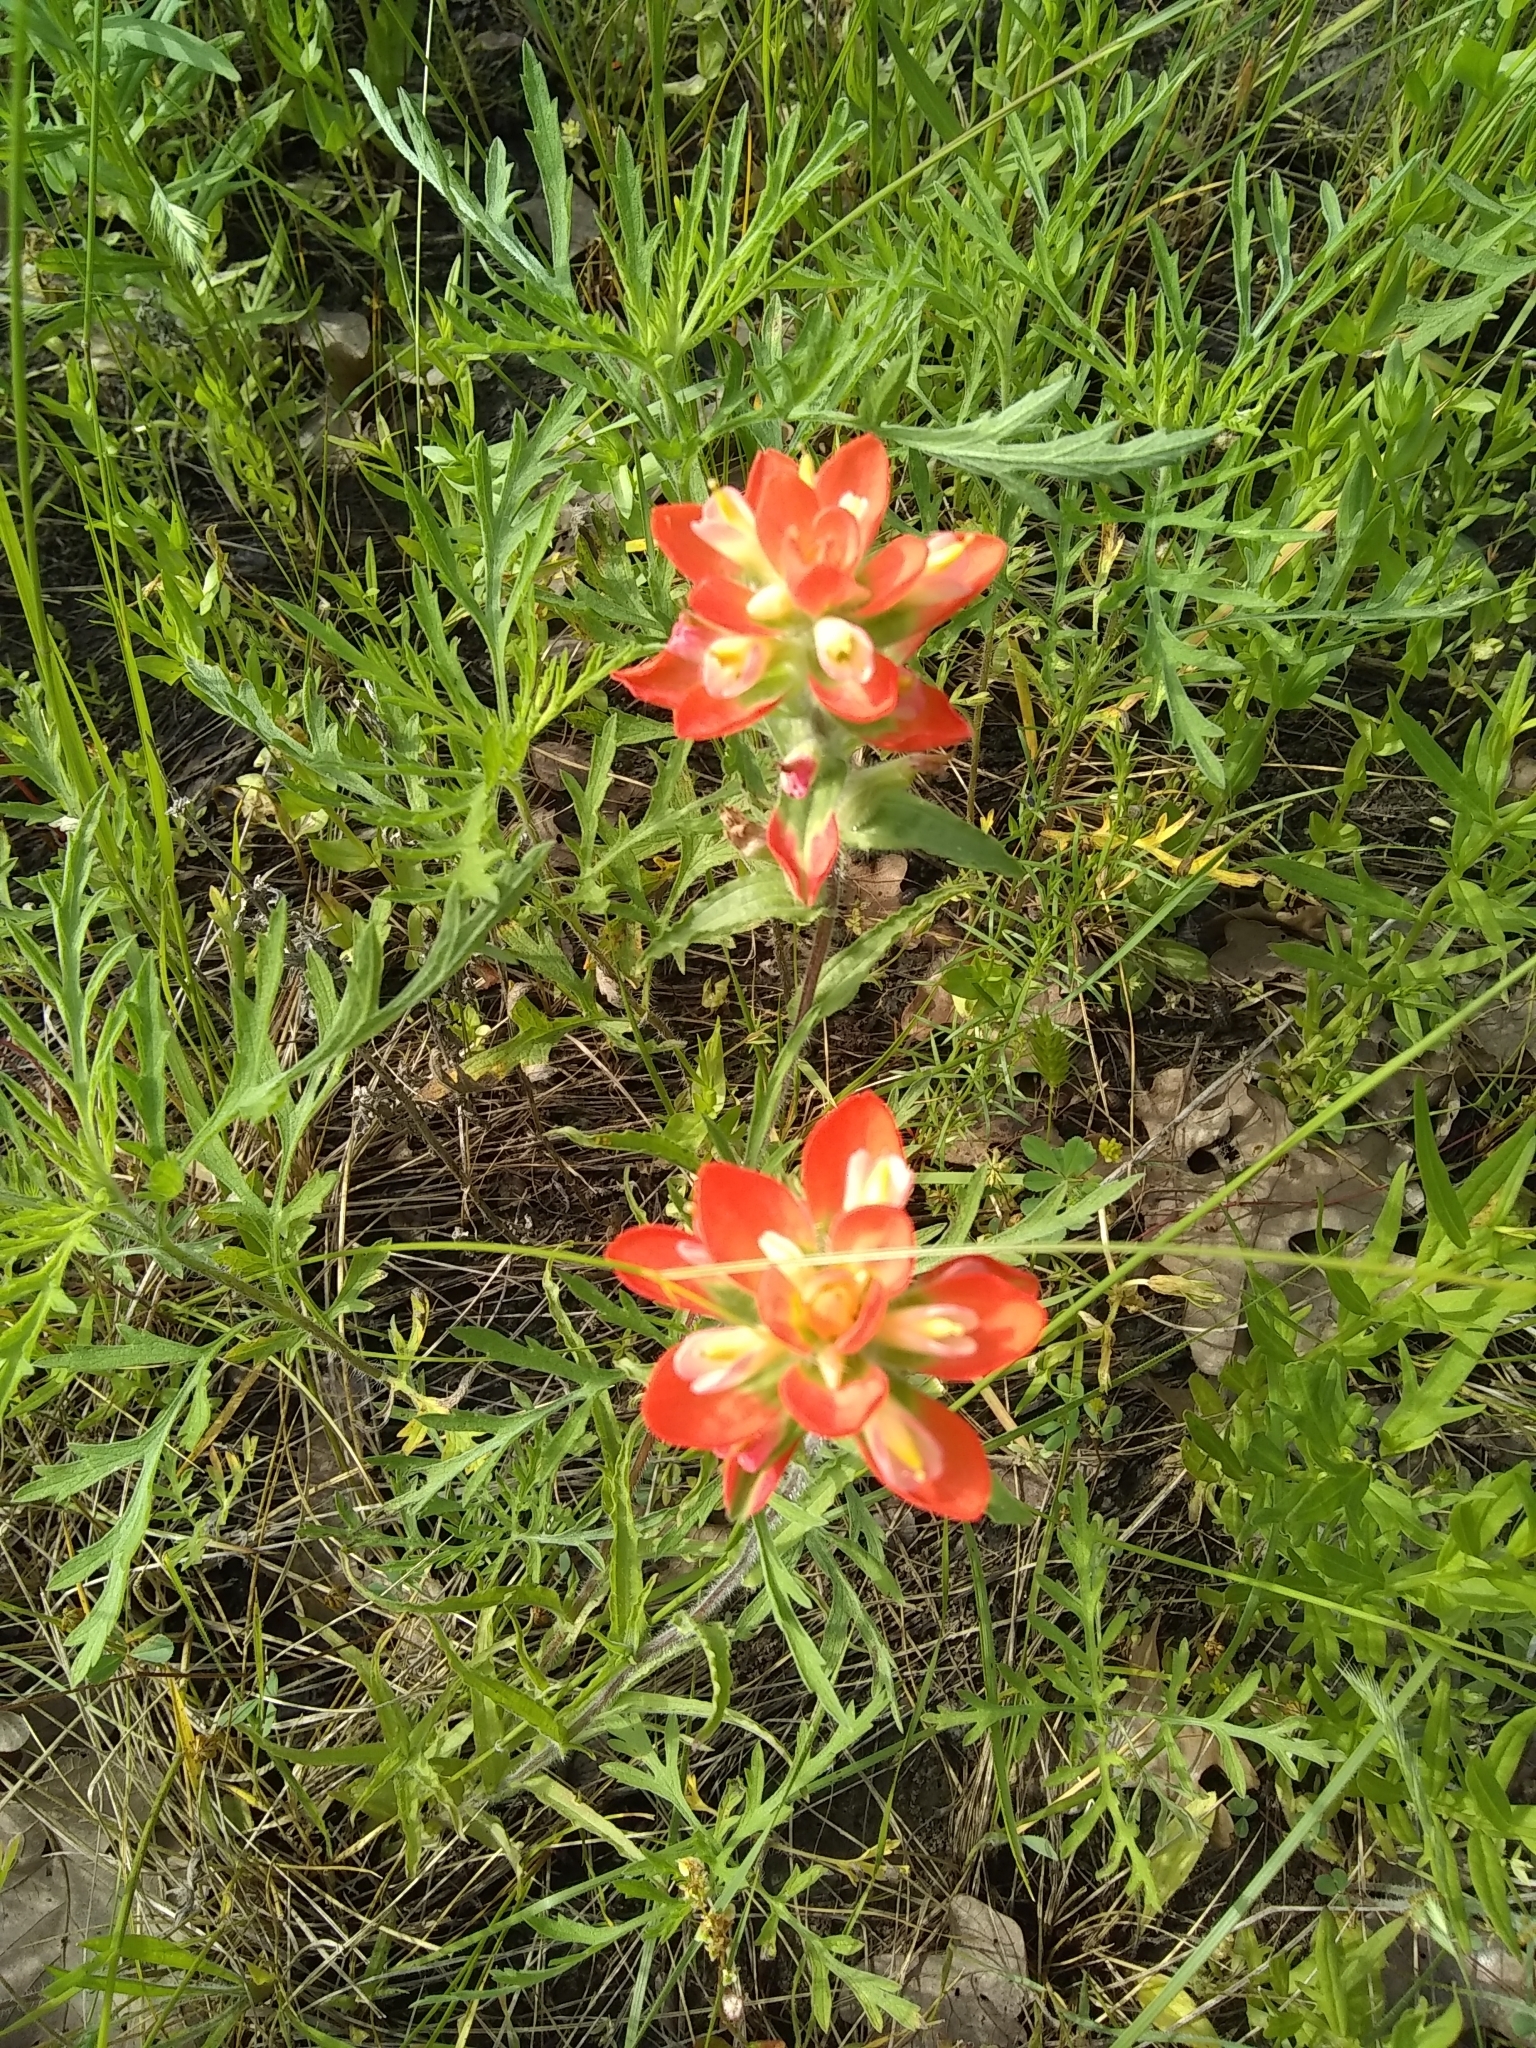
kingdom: Plantae
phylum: Tracheophyta
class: Magnoliopsida
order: Lamiales
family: Orobanchaceae
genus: Castilleja
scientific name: Castilleja indivisa
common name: Texas paintbrush
